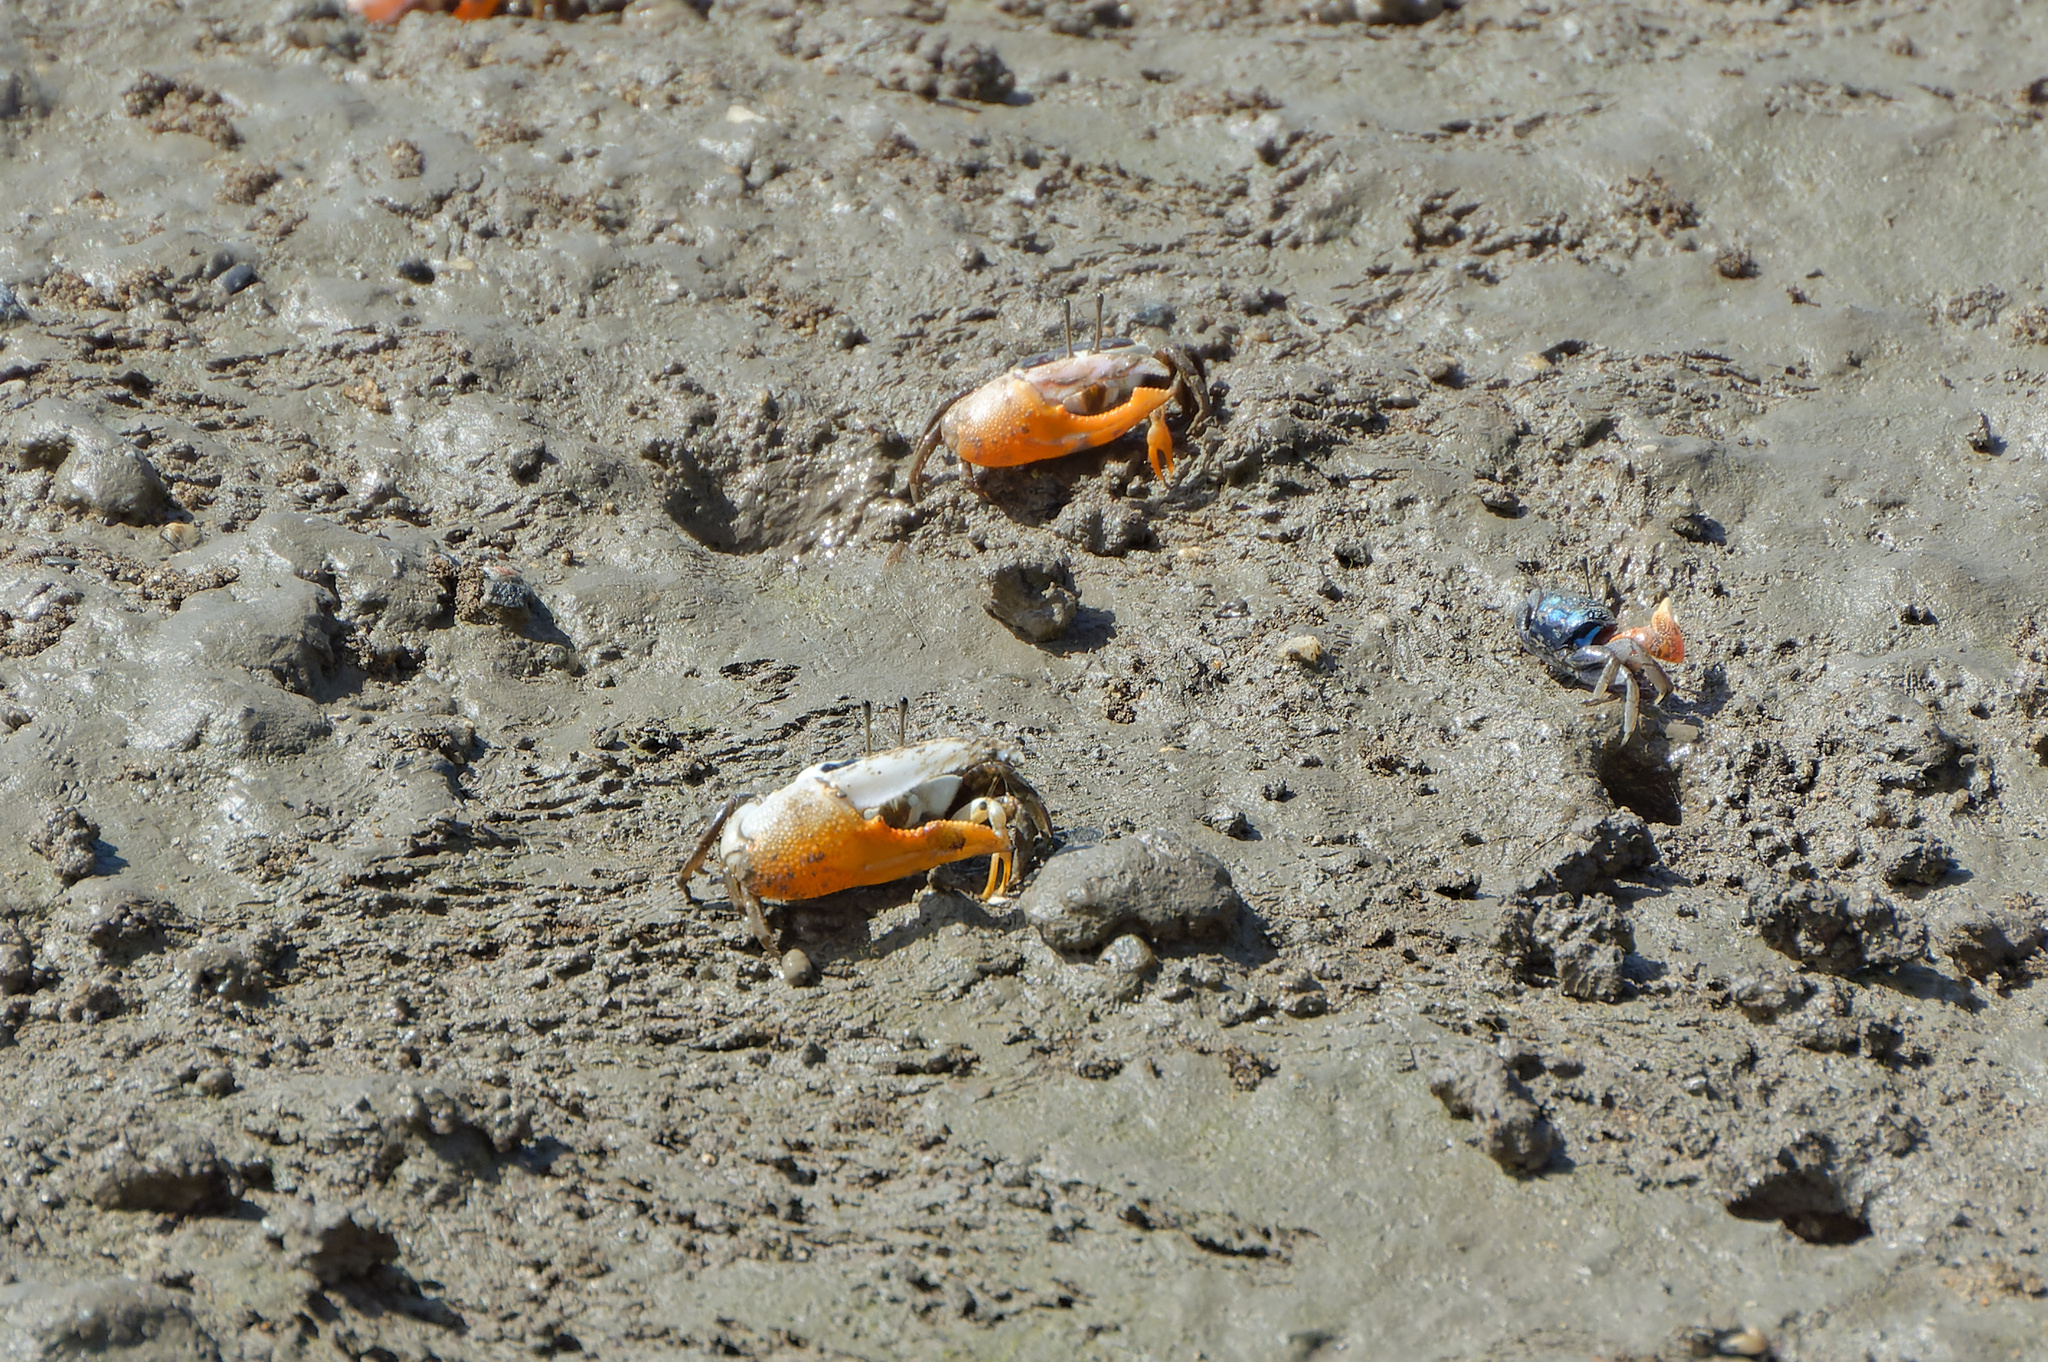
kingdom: Animalia
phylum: Arthropoda
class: Malacostraca
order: Decapoda
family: Ocypodidae
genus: Gelasimus
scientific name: Gelasimus vomeris
